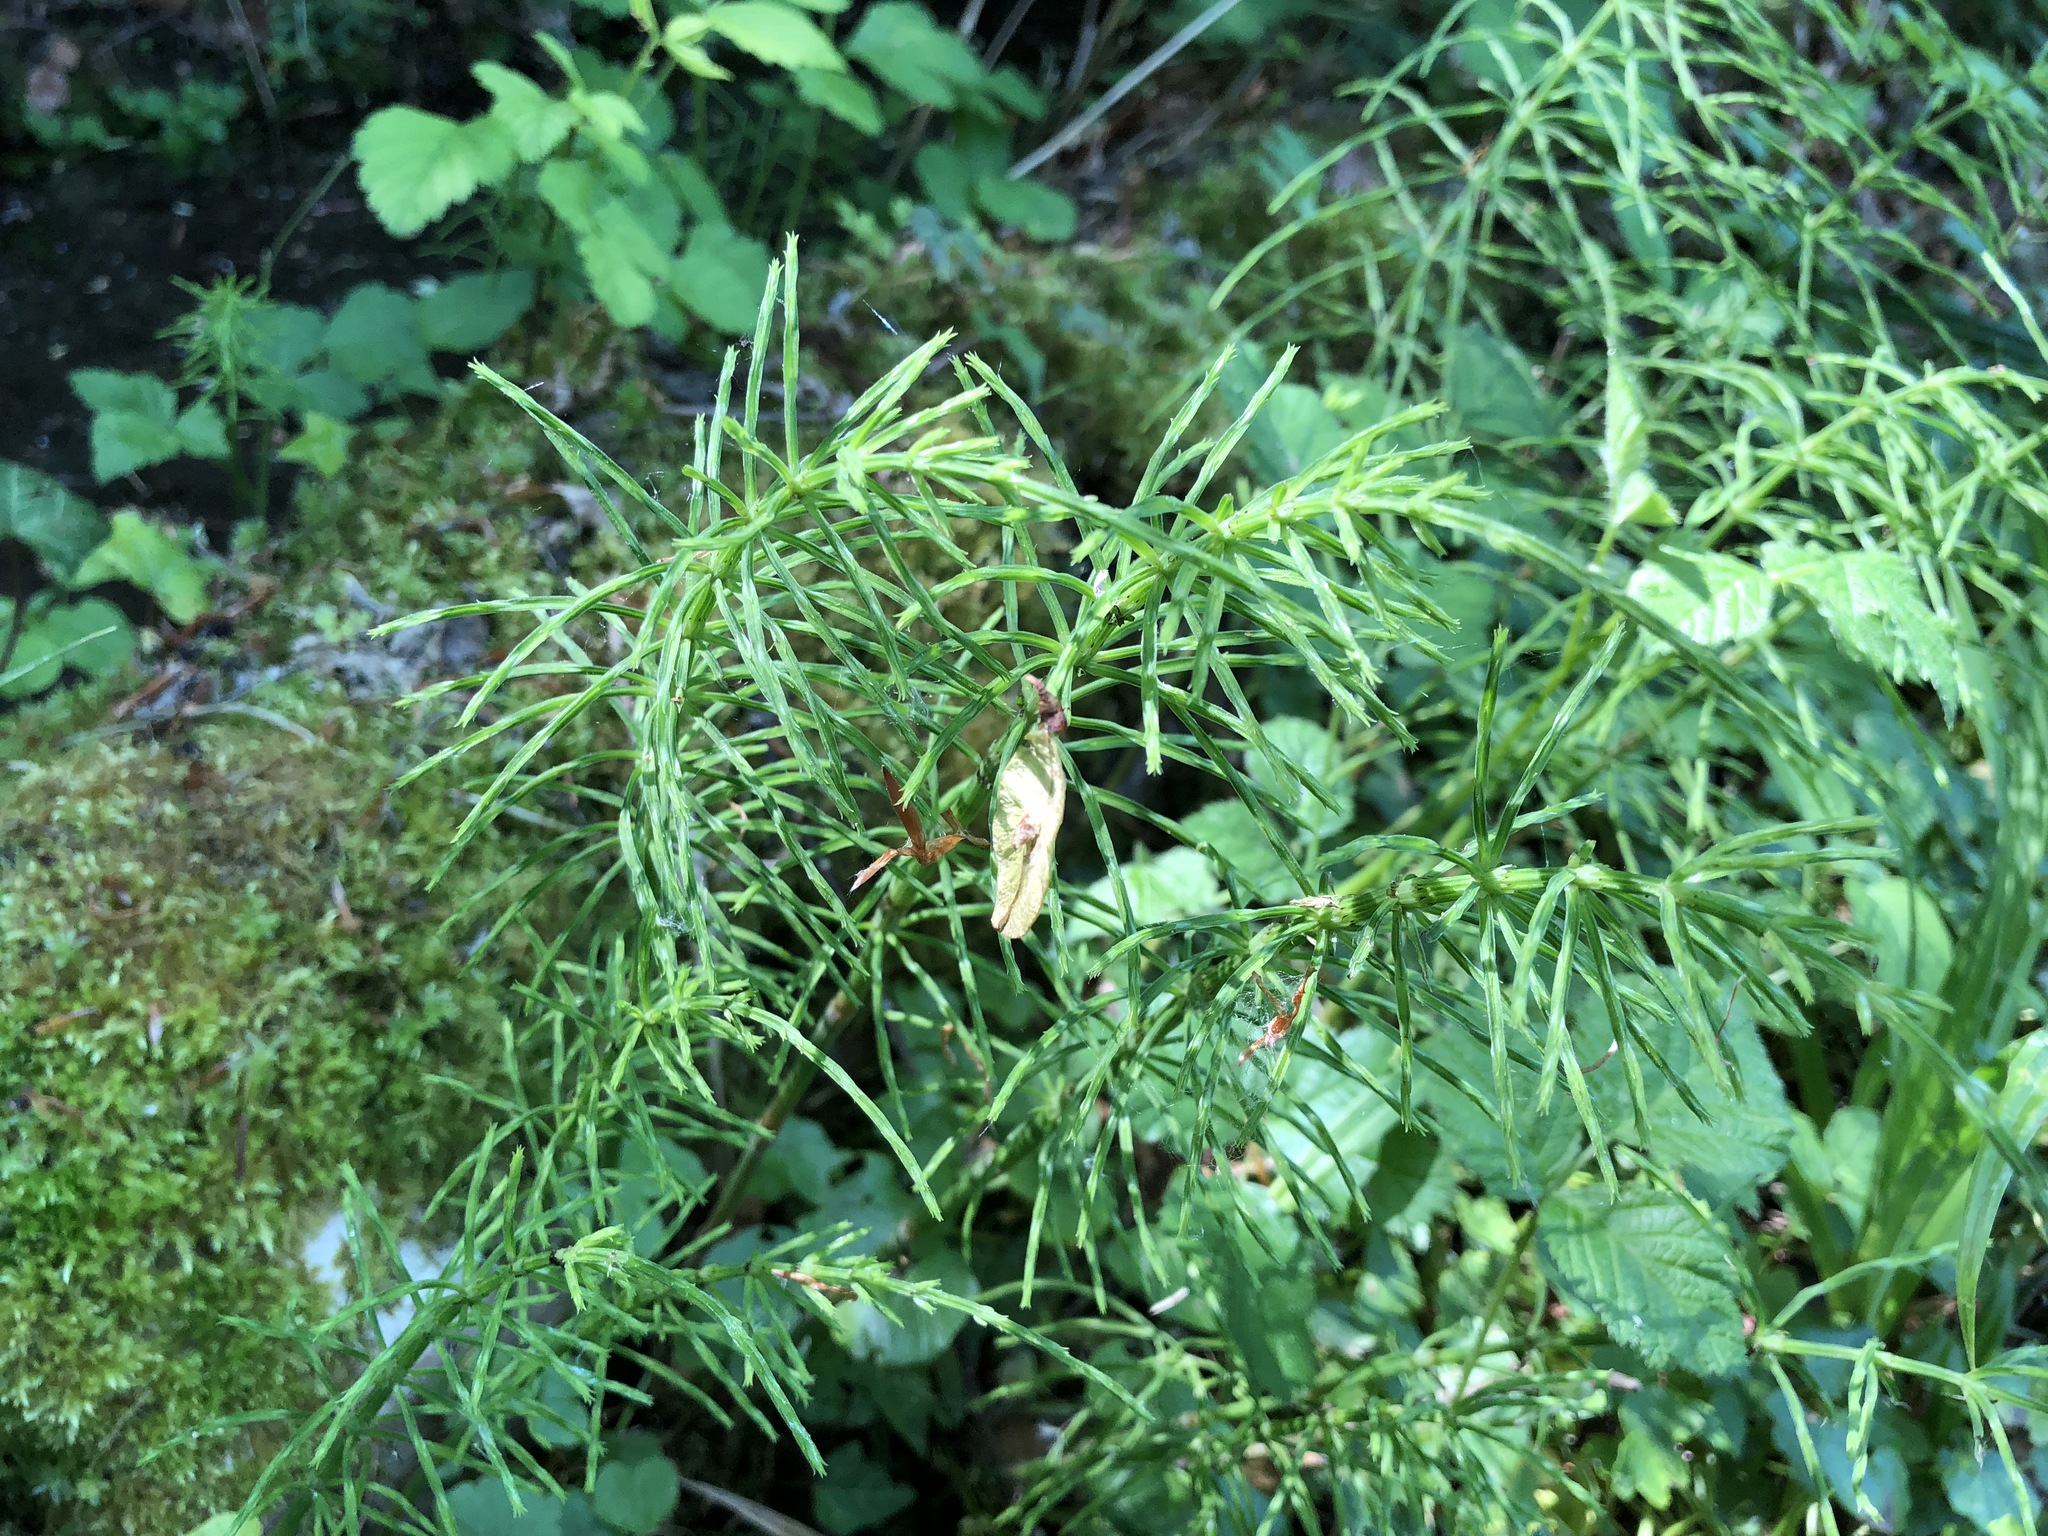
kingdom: Plantae
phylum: Tracheophyta
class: Polypodiopsida
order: Equisetales
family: Equisetaceae
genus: Equisetum
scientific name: Equisetum arvense
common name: Field horsetail
